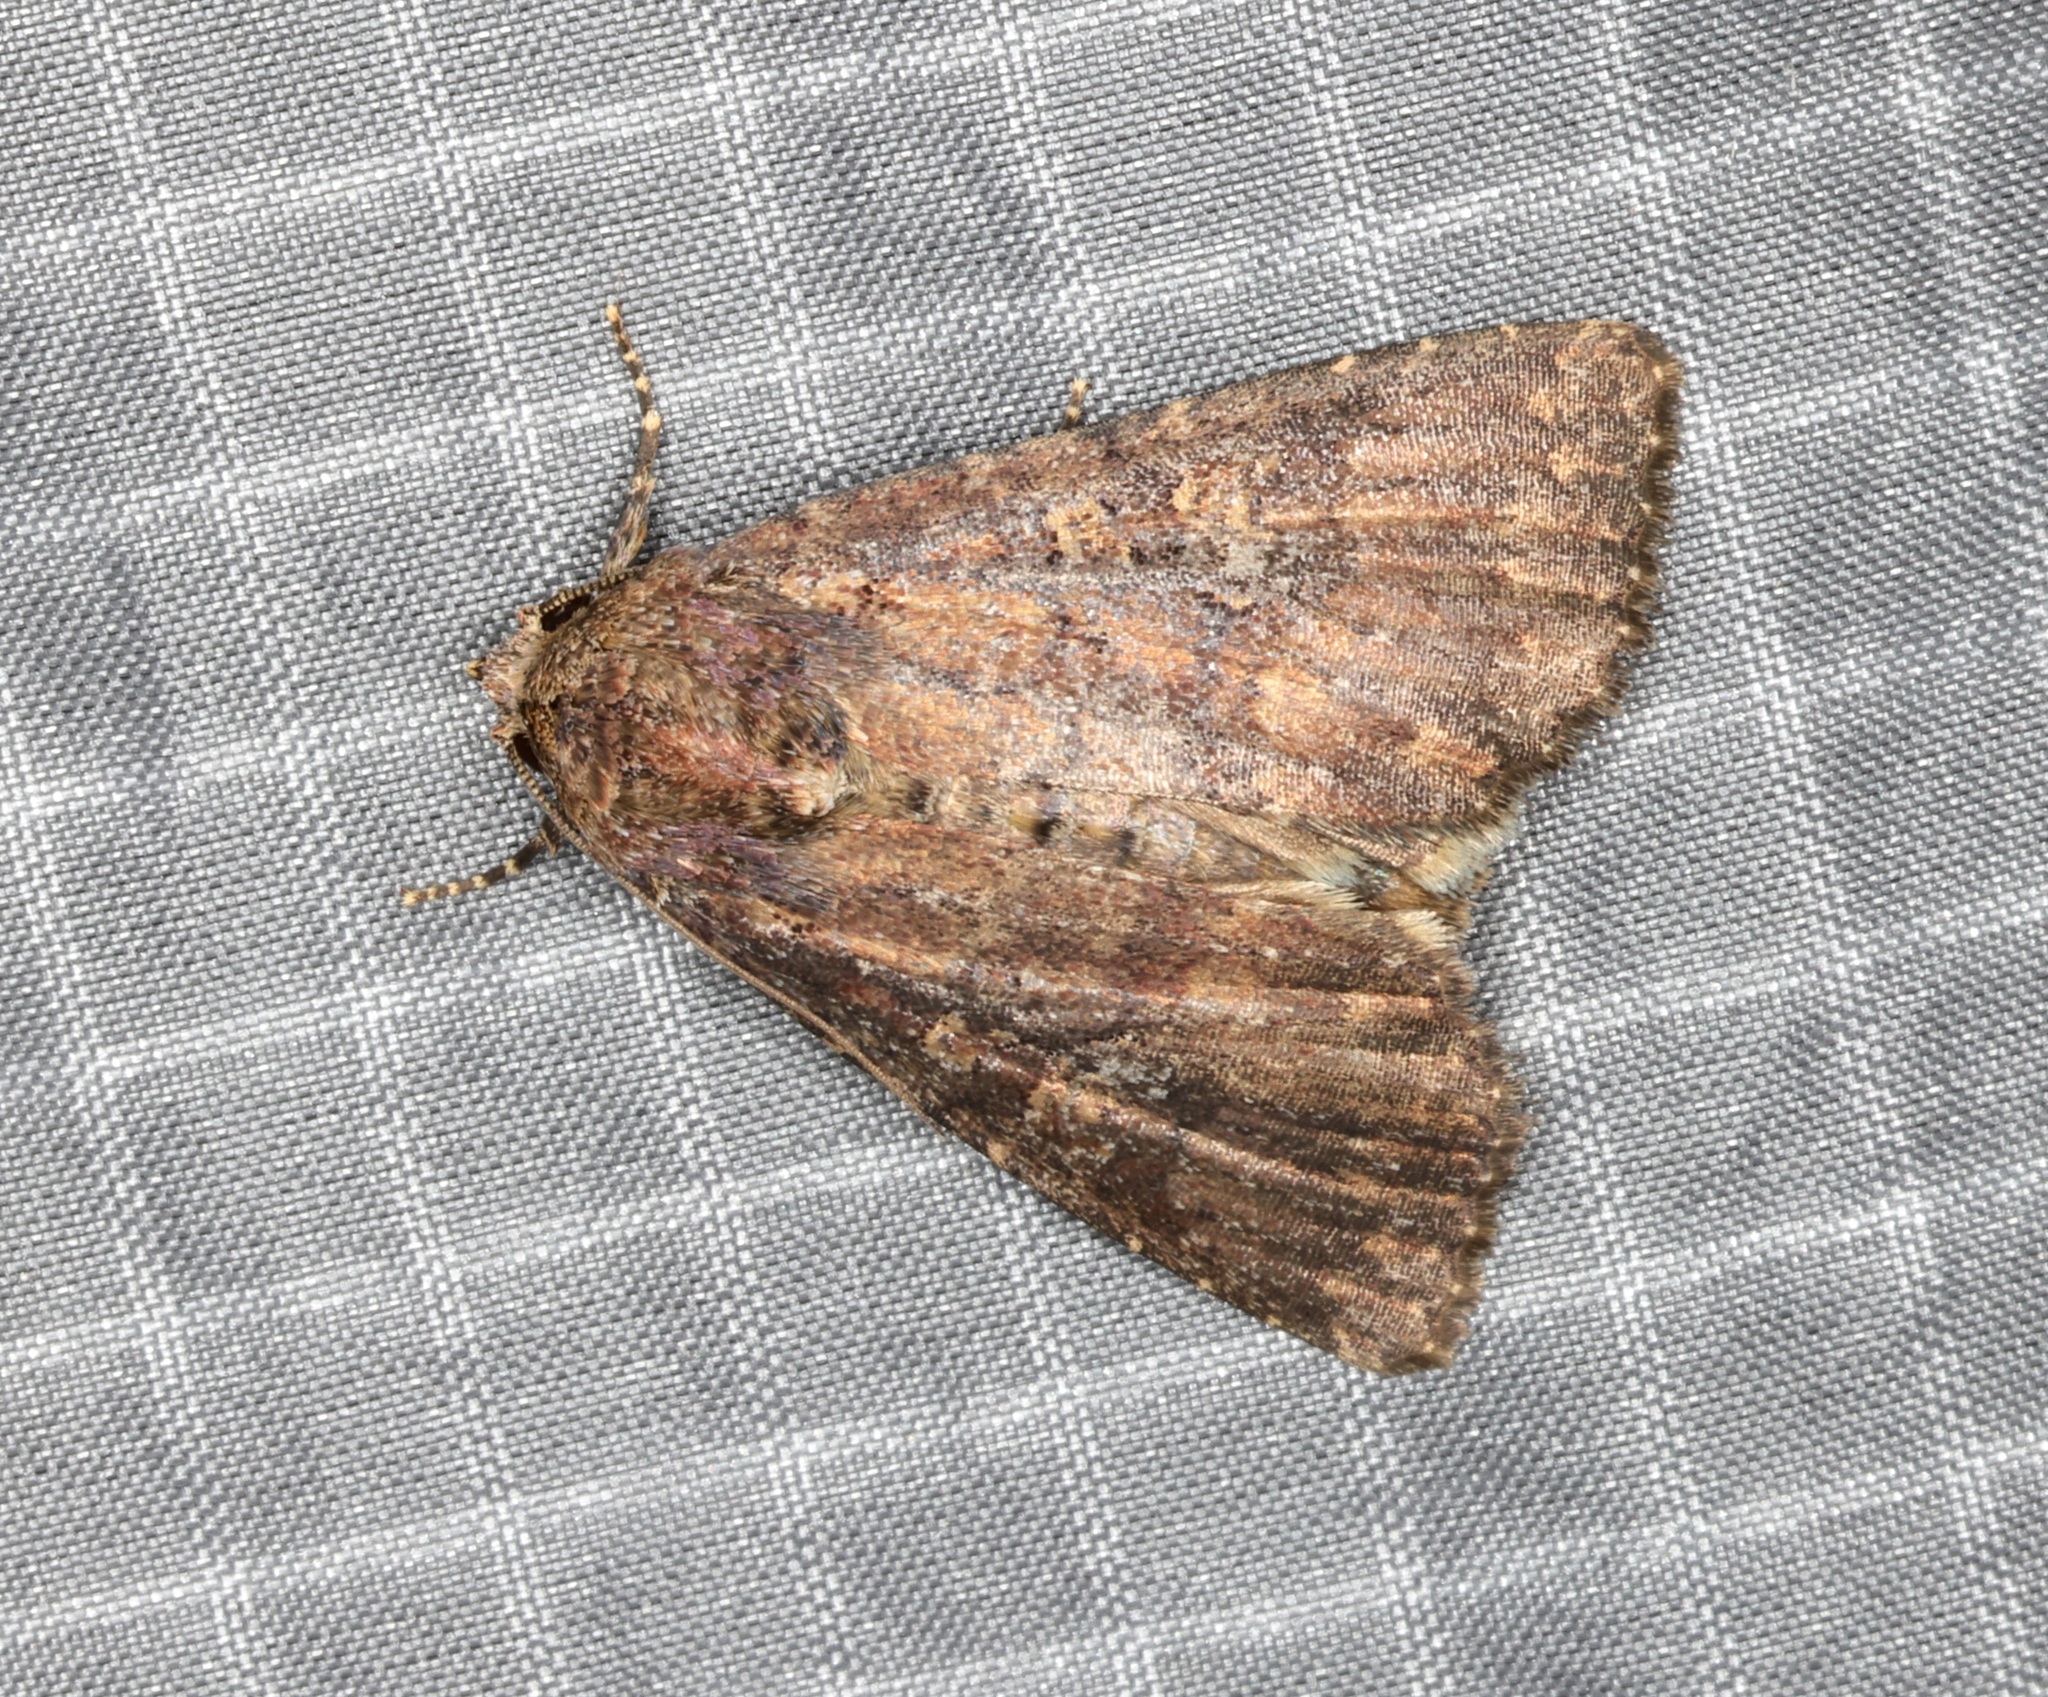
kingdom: Animalia
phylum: Arthropoda
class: Insecta
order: Lepidoptera
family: Noctuidae
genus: Condica
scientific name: Condica illecta
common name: Cutworm
